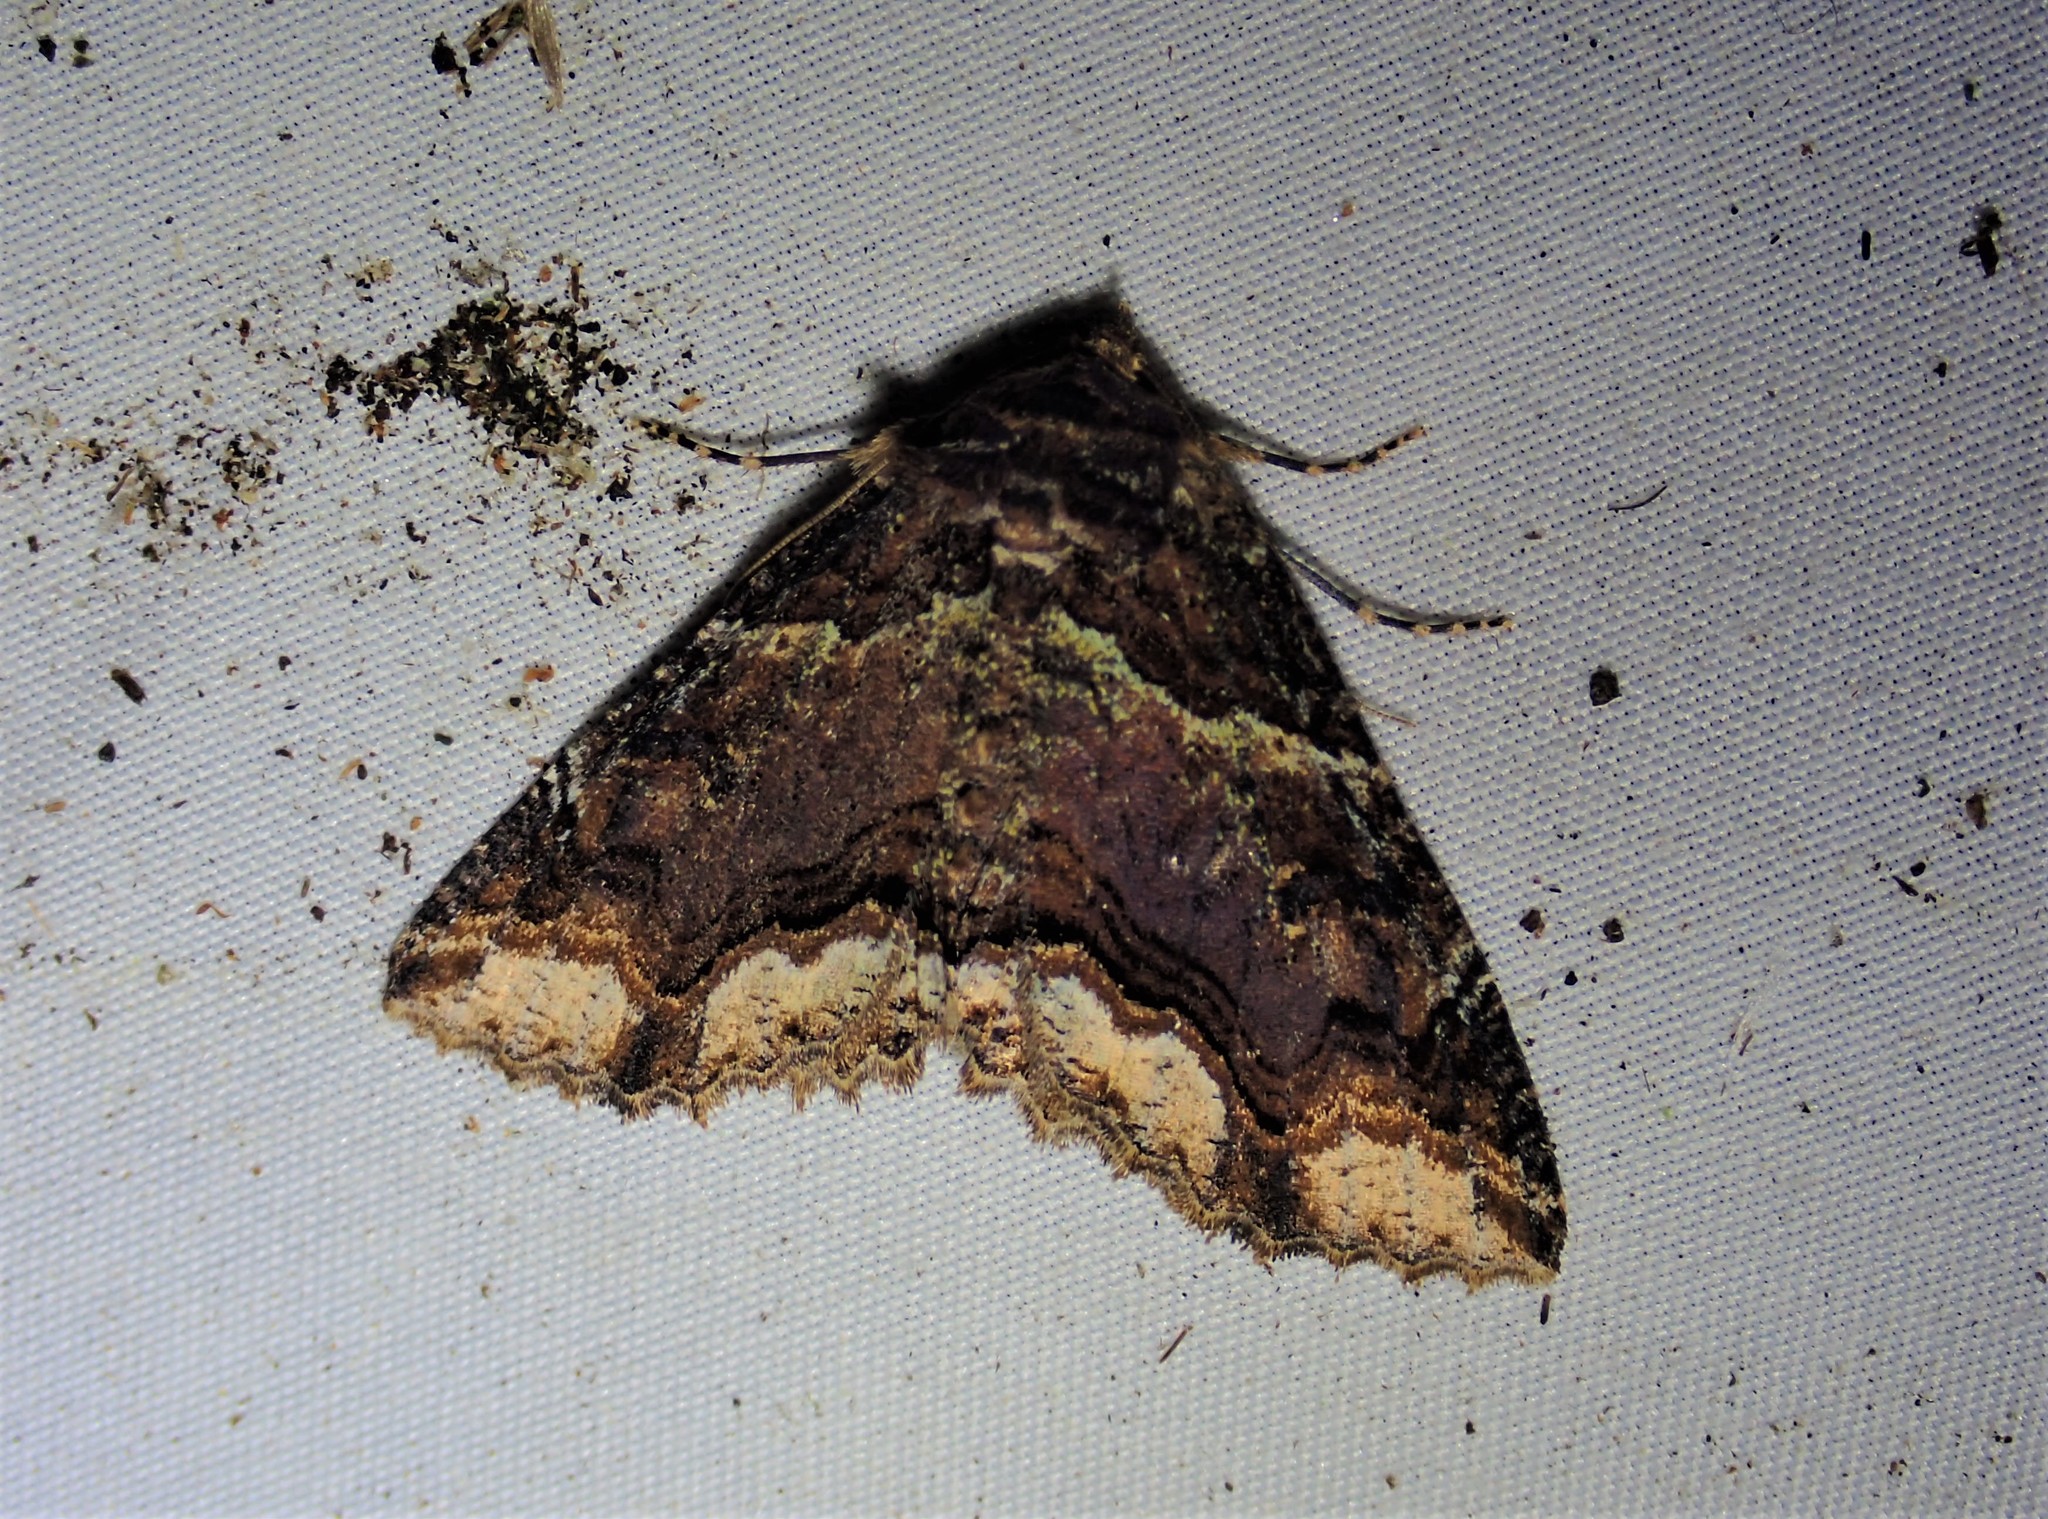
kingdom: Animalia
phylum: Arthropoda
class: Insecta
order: Lepidoptera
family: Erebidae
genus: Zale
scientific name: Zale minerea
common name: Colorful zale moth
